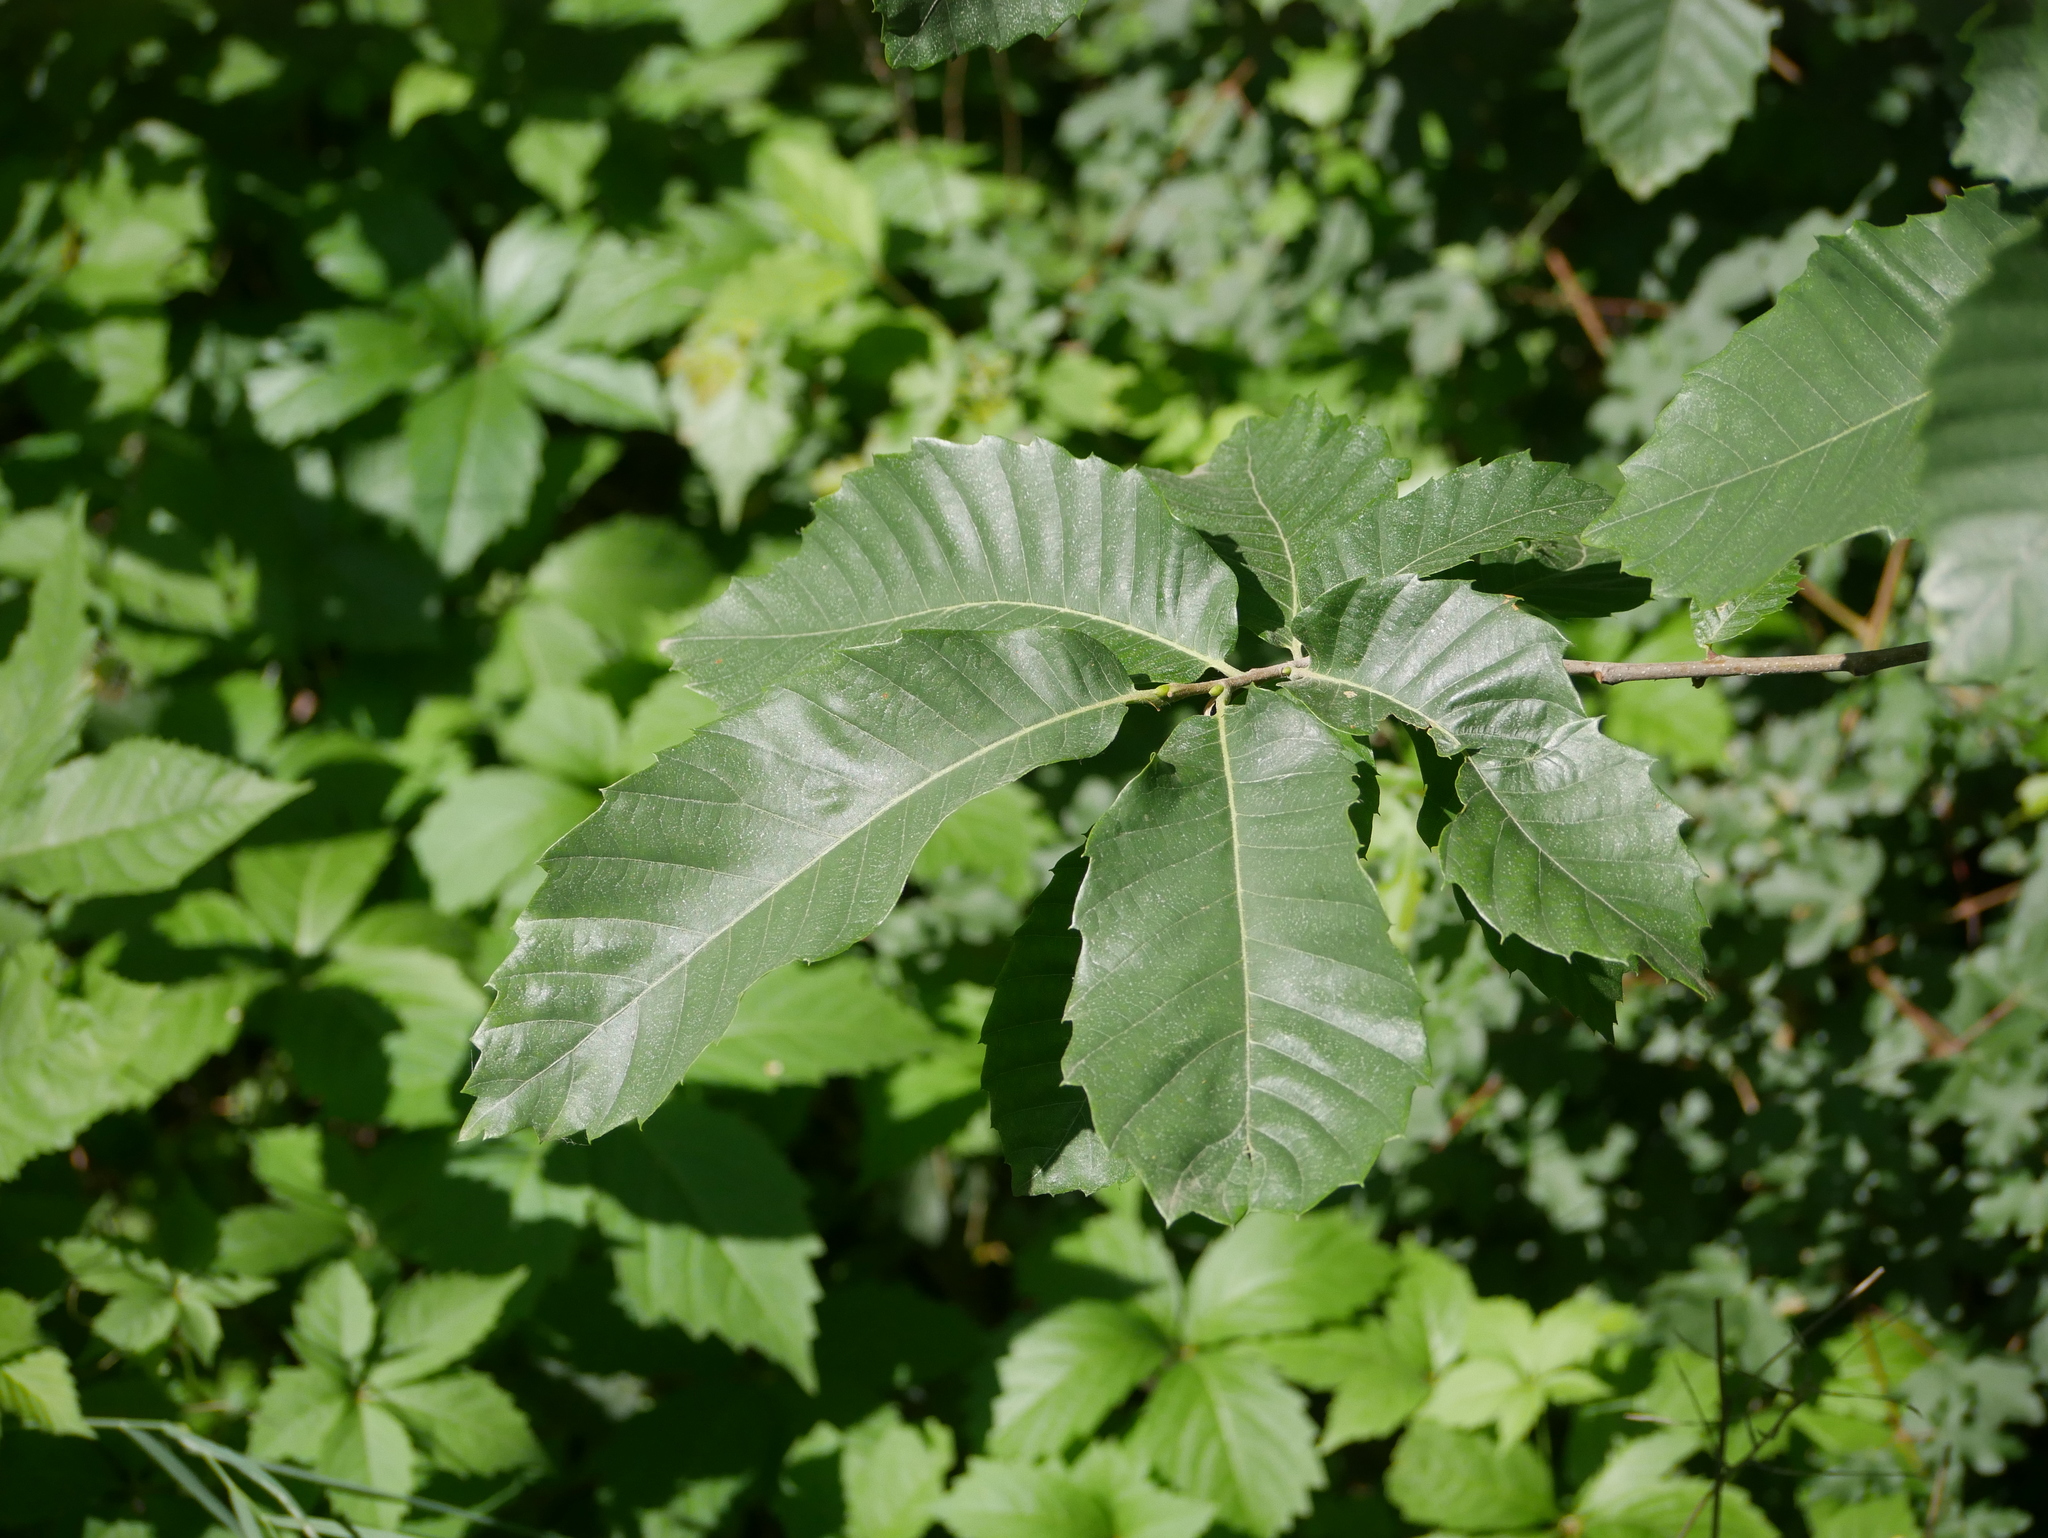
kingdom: Plantae
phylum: Tracheophyta
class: Magnoliopsida
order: Fagales
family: Fagaceae
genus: Castanea
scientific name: Castanea sativa
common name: Sweet chestnut
